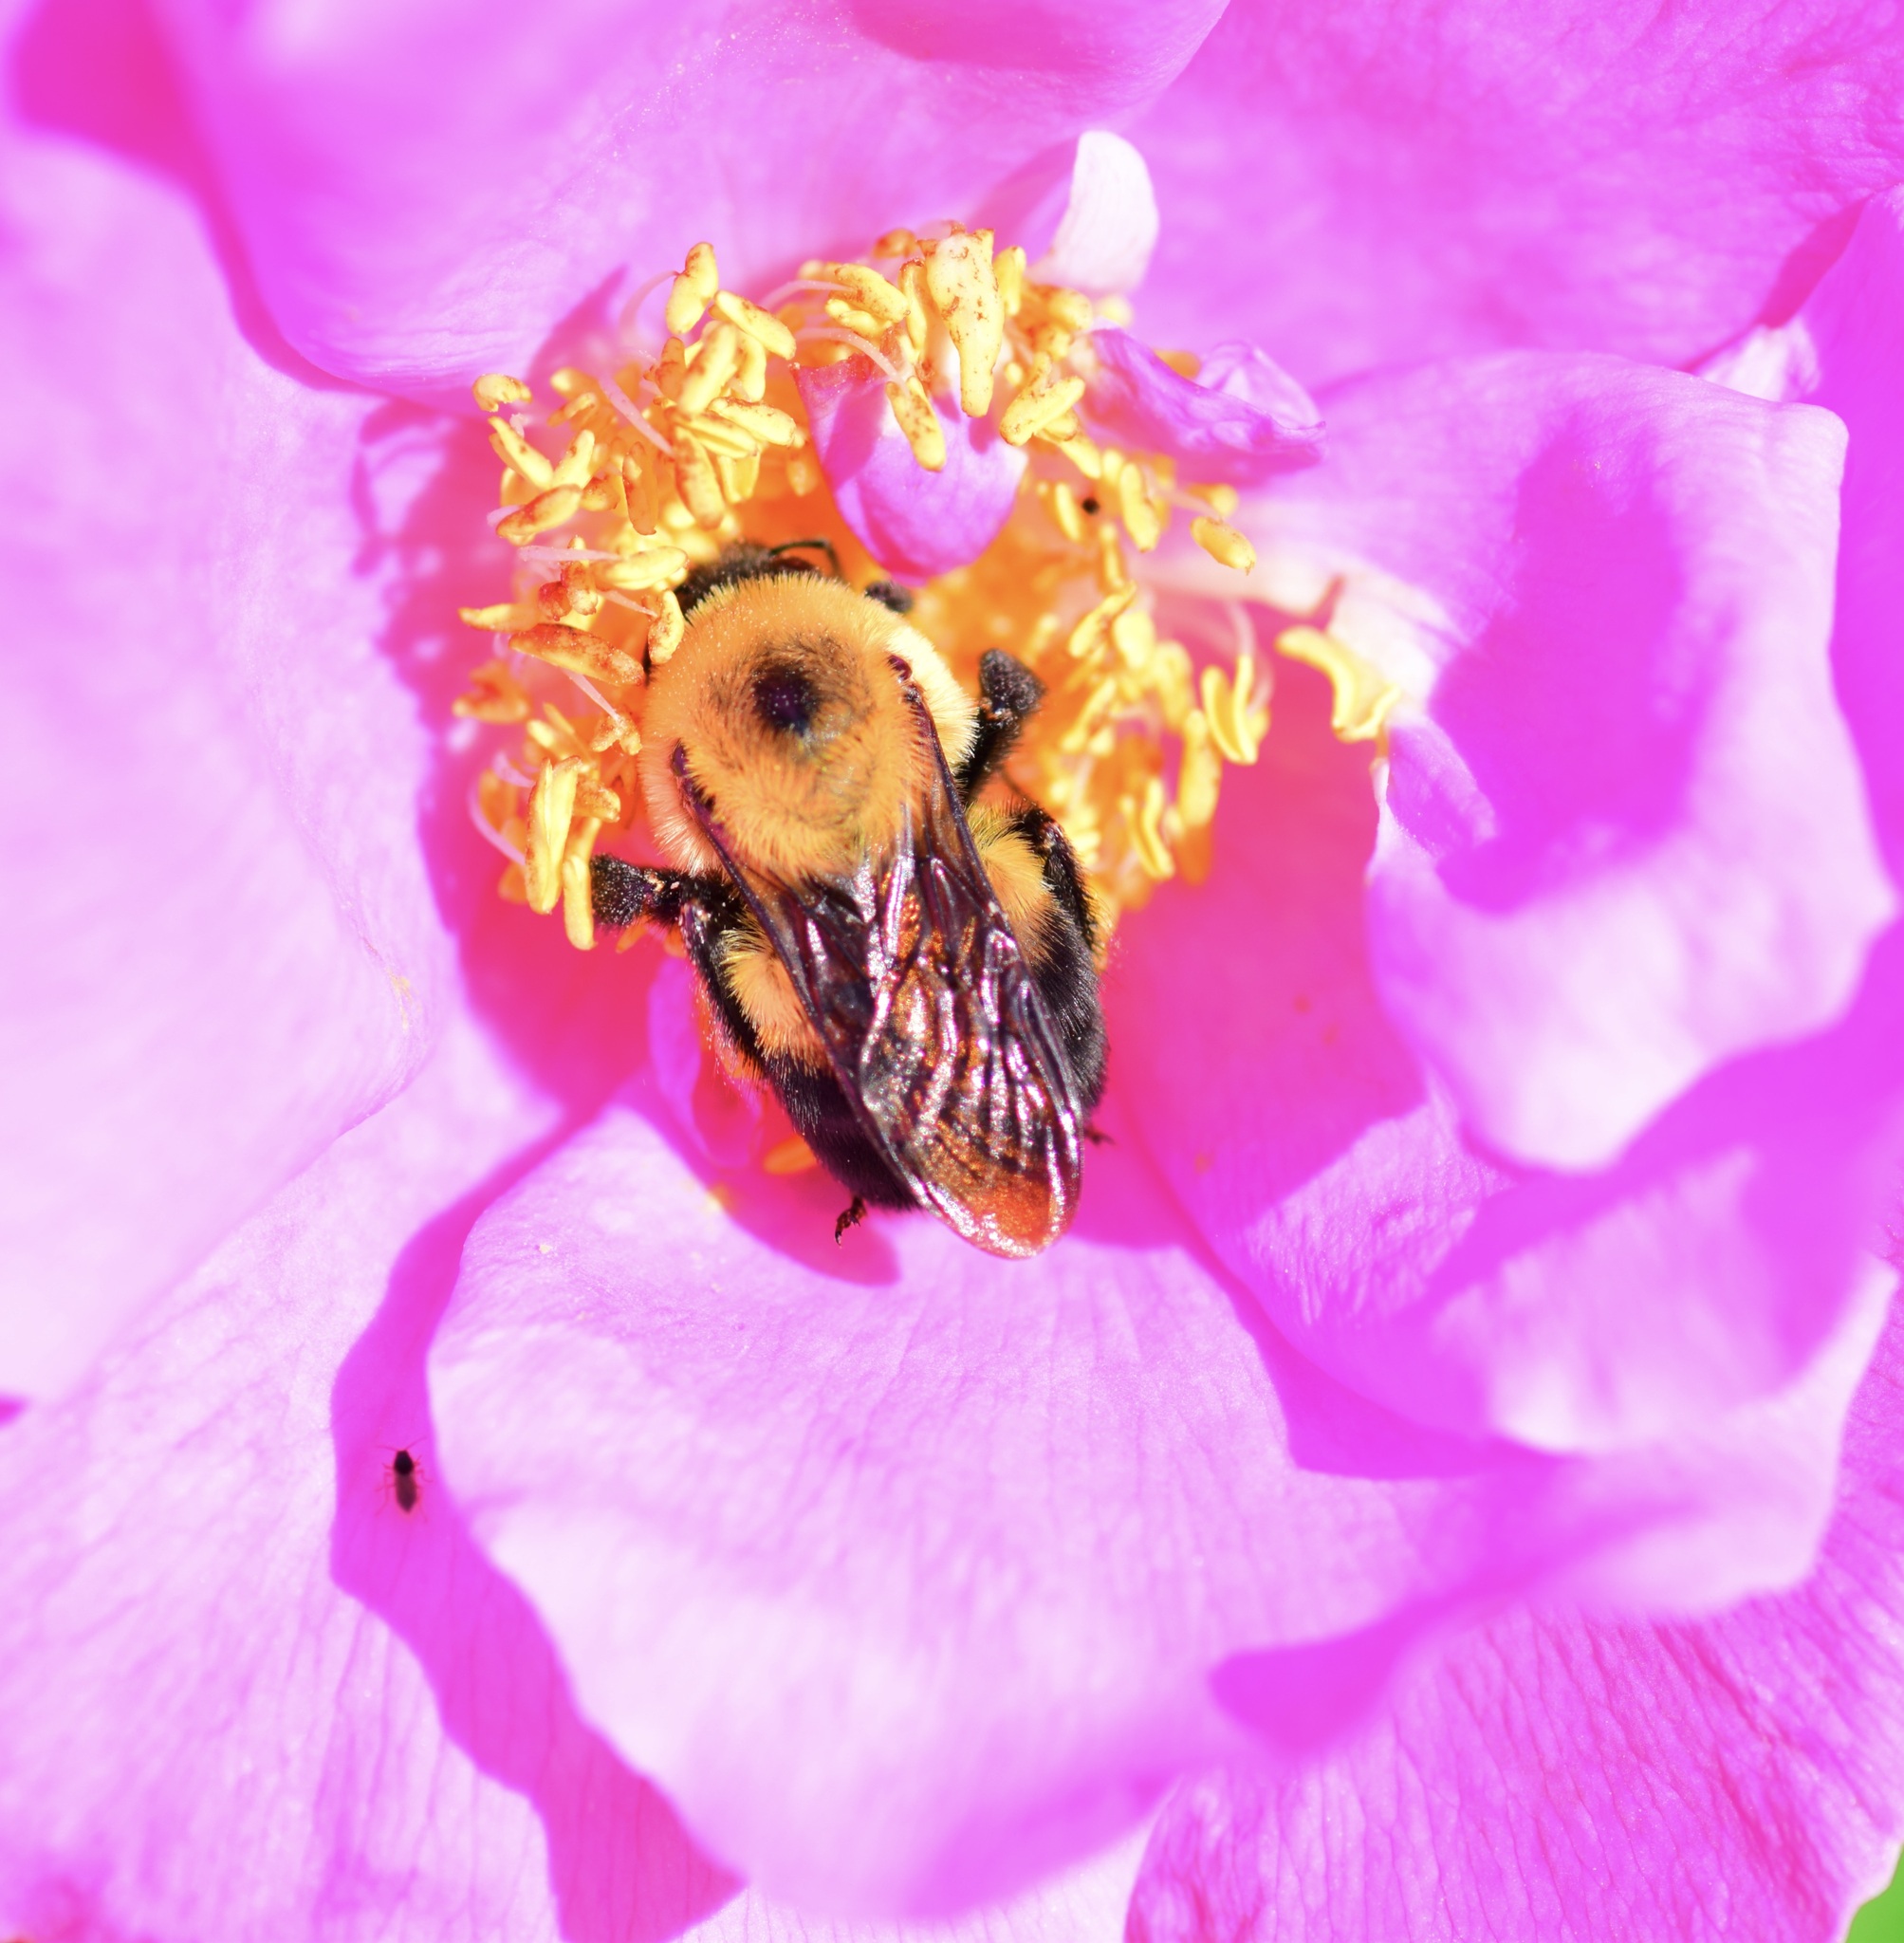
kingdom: Animalia
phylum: Arthropoda
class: Insecta
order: Hymenoptera
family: Apidae
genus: Bombus
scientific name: Bombus griseocollis
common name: Brown-belted bumble bee
